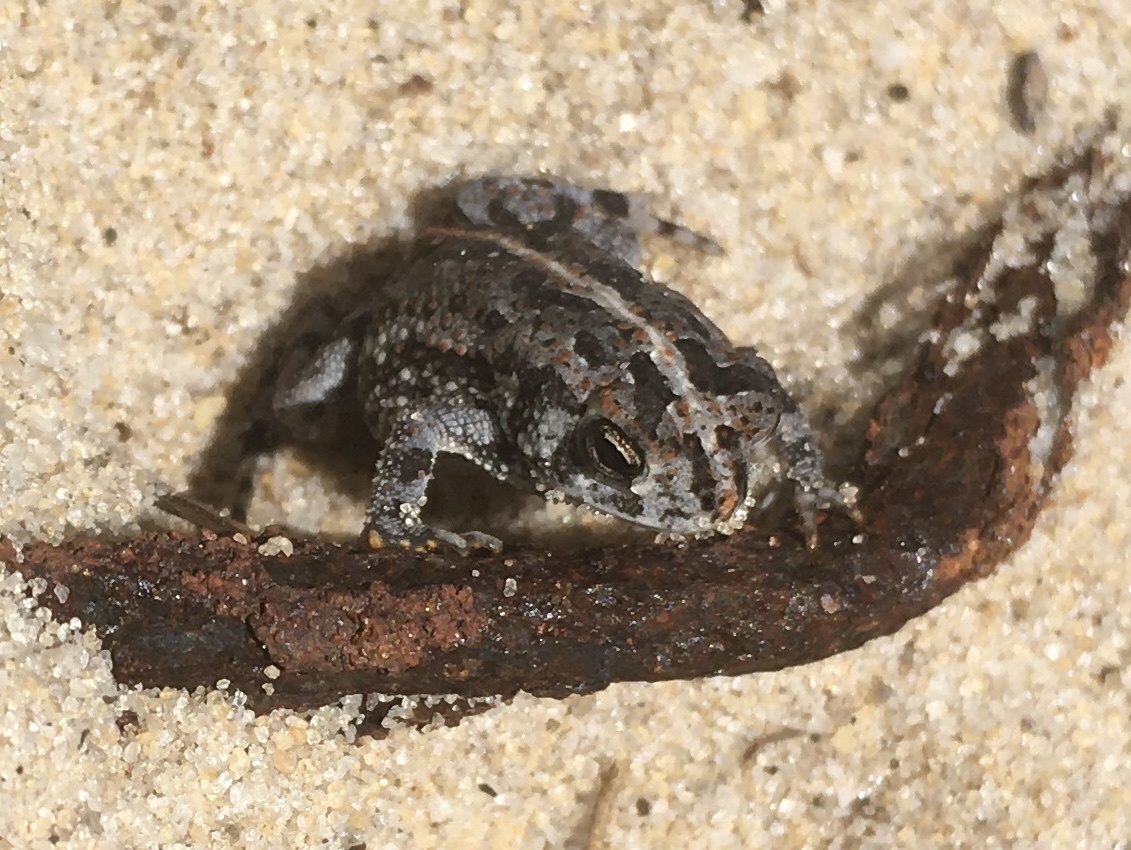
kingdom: Animalia
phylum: Chordata
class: Amphibia
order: Anura
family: Bufonidae
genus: Anaxyrus
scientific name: Anaxyrus quercicus
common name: Oak toad
